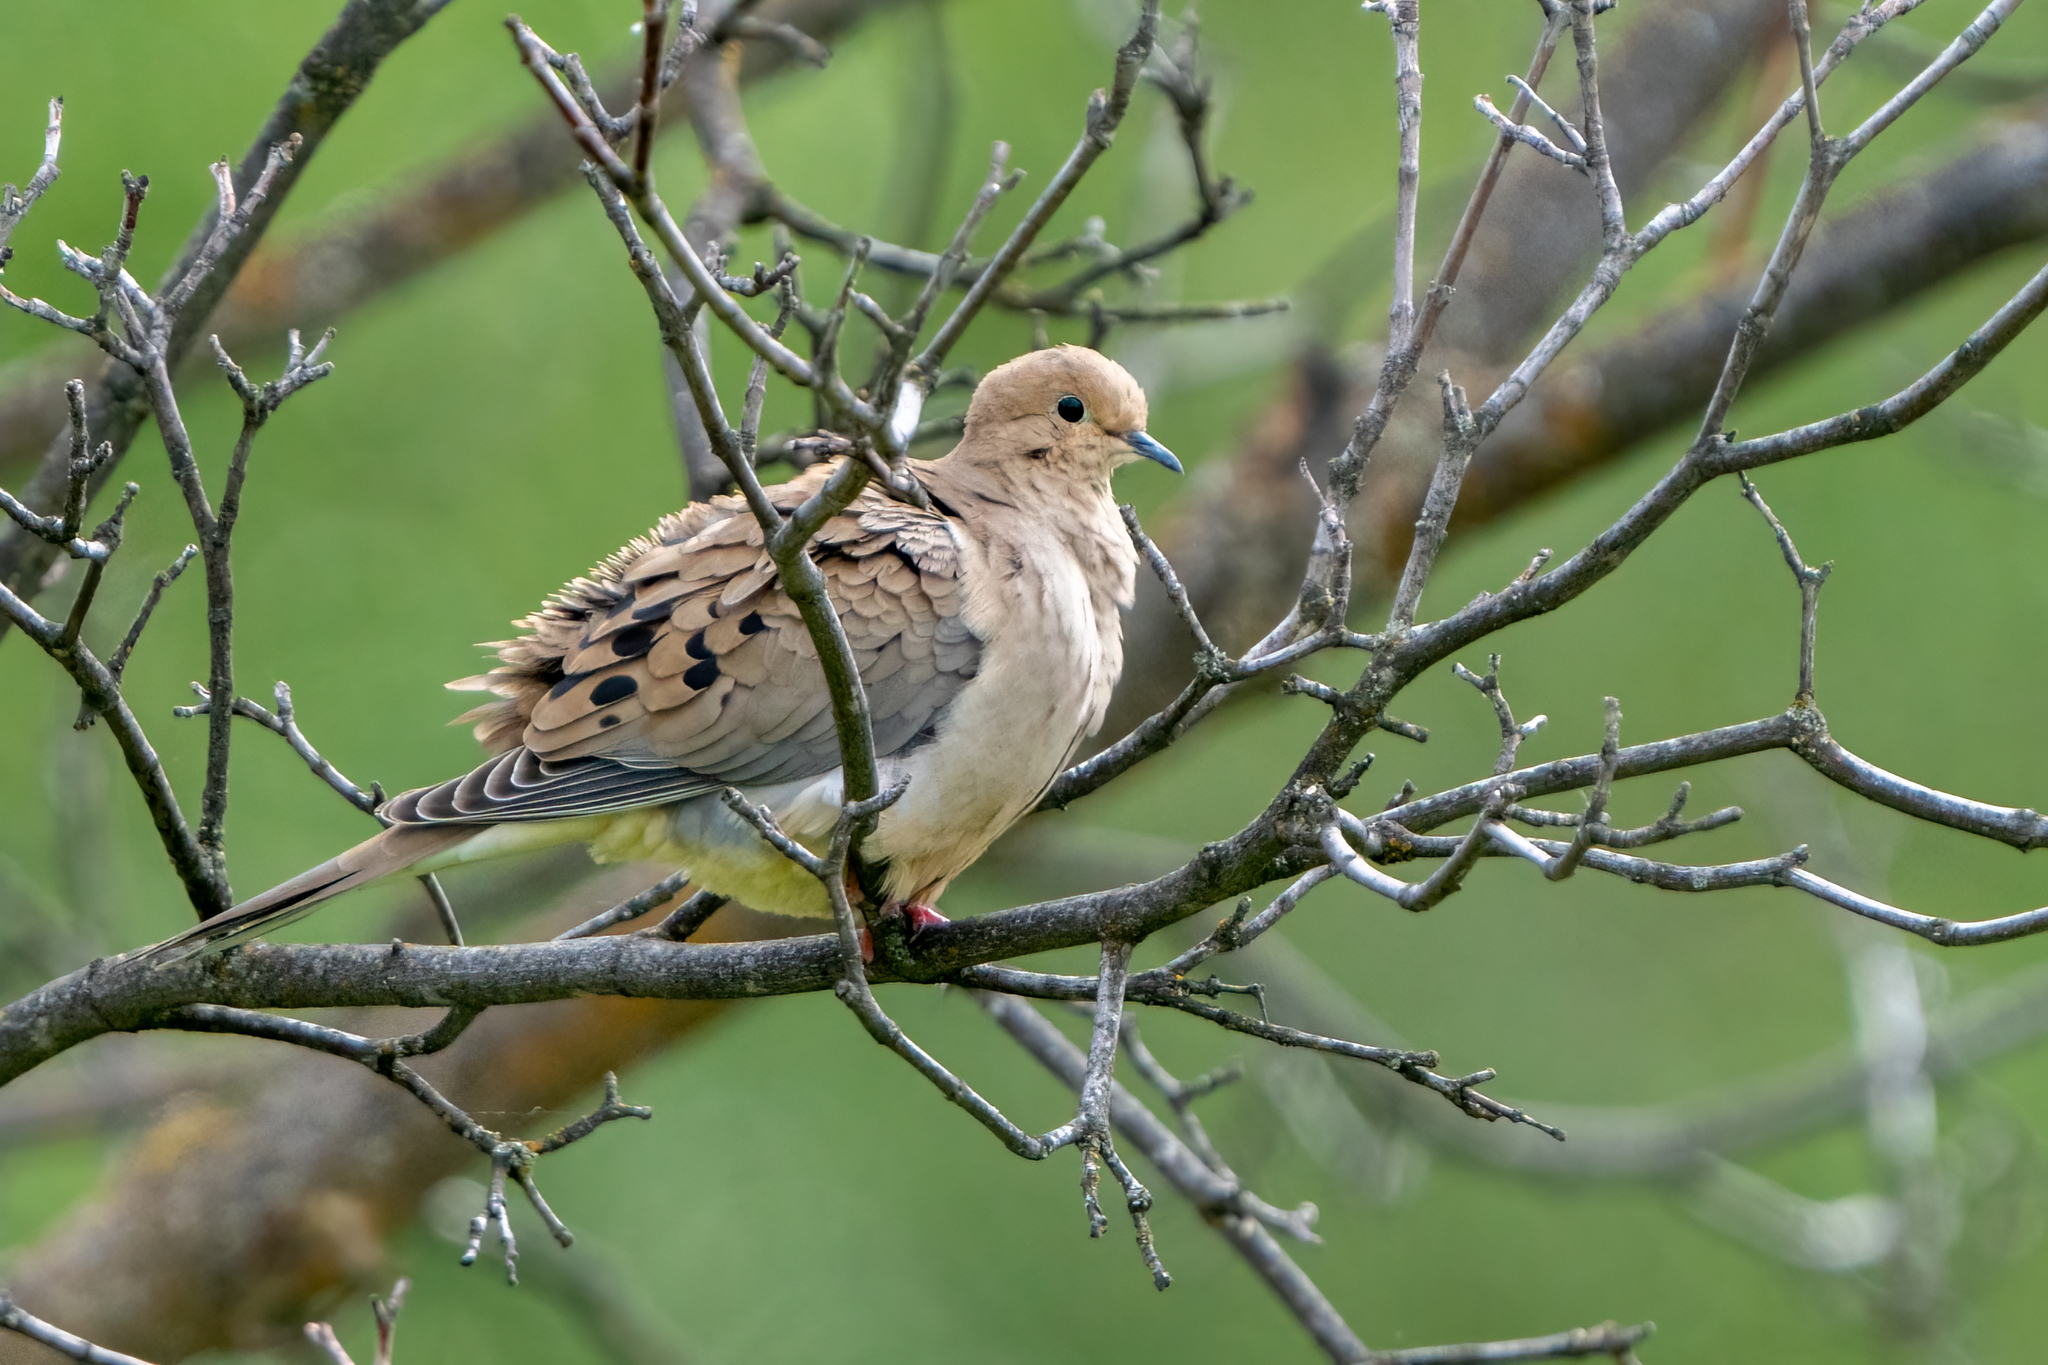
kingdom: Animalia
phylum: Chordata
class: Aves
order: Columbiformes
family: Columbidae
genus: Zenaida
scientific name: Zenaida macroura
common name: Mourning dove
